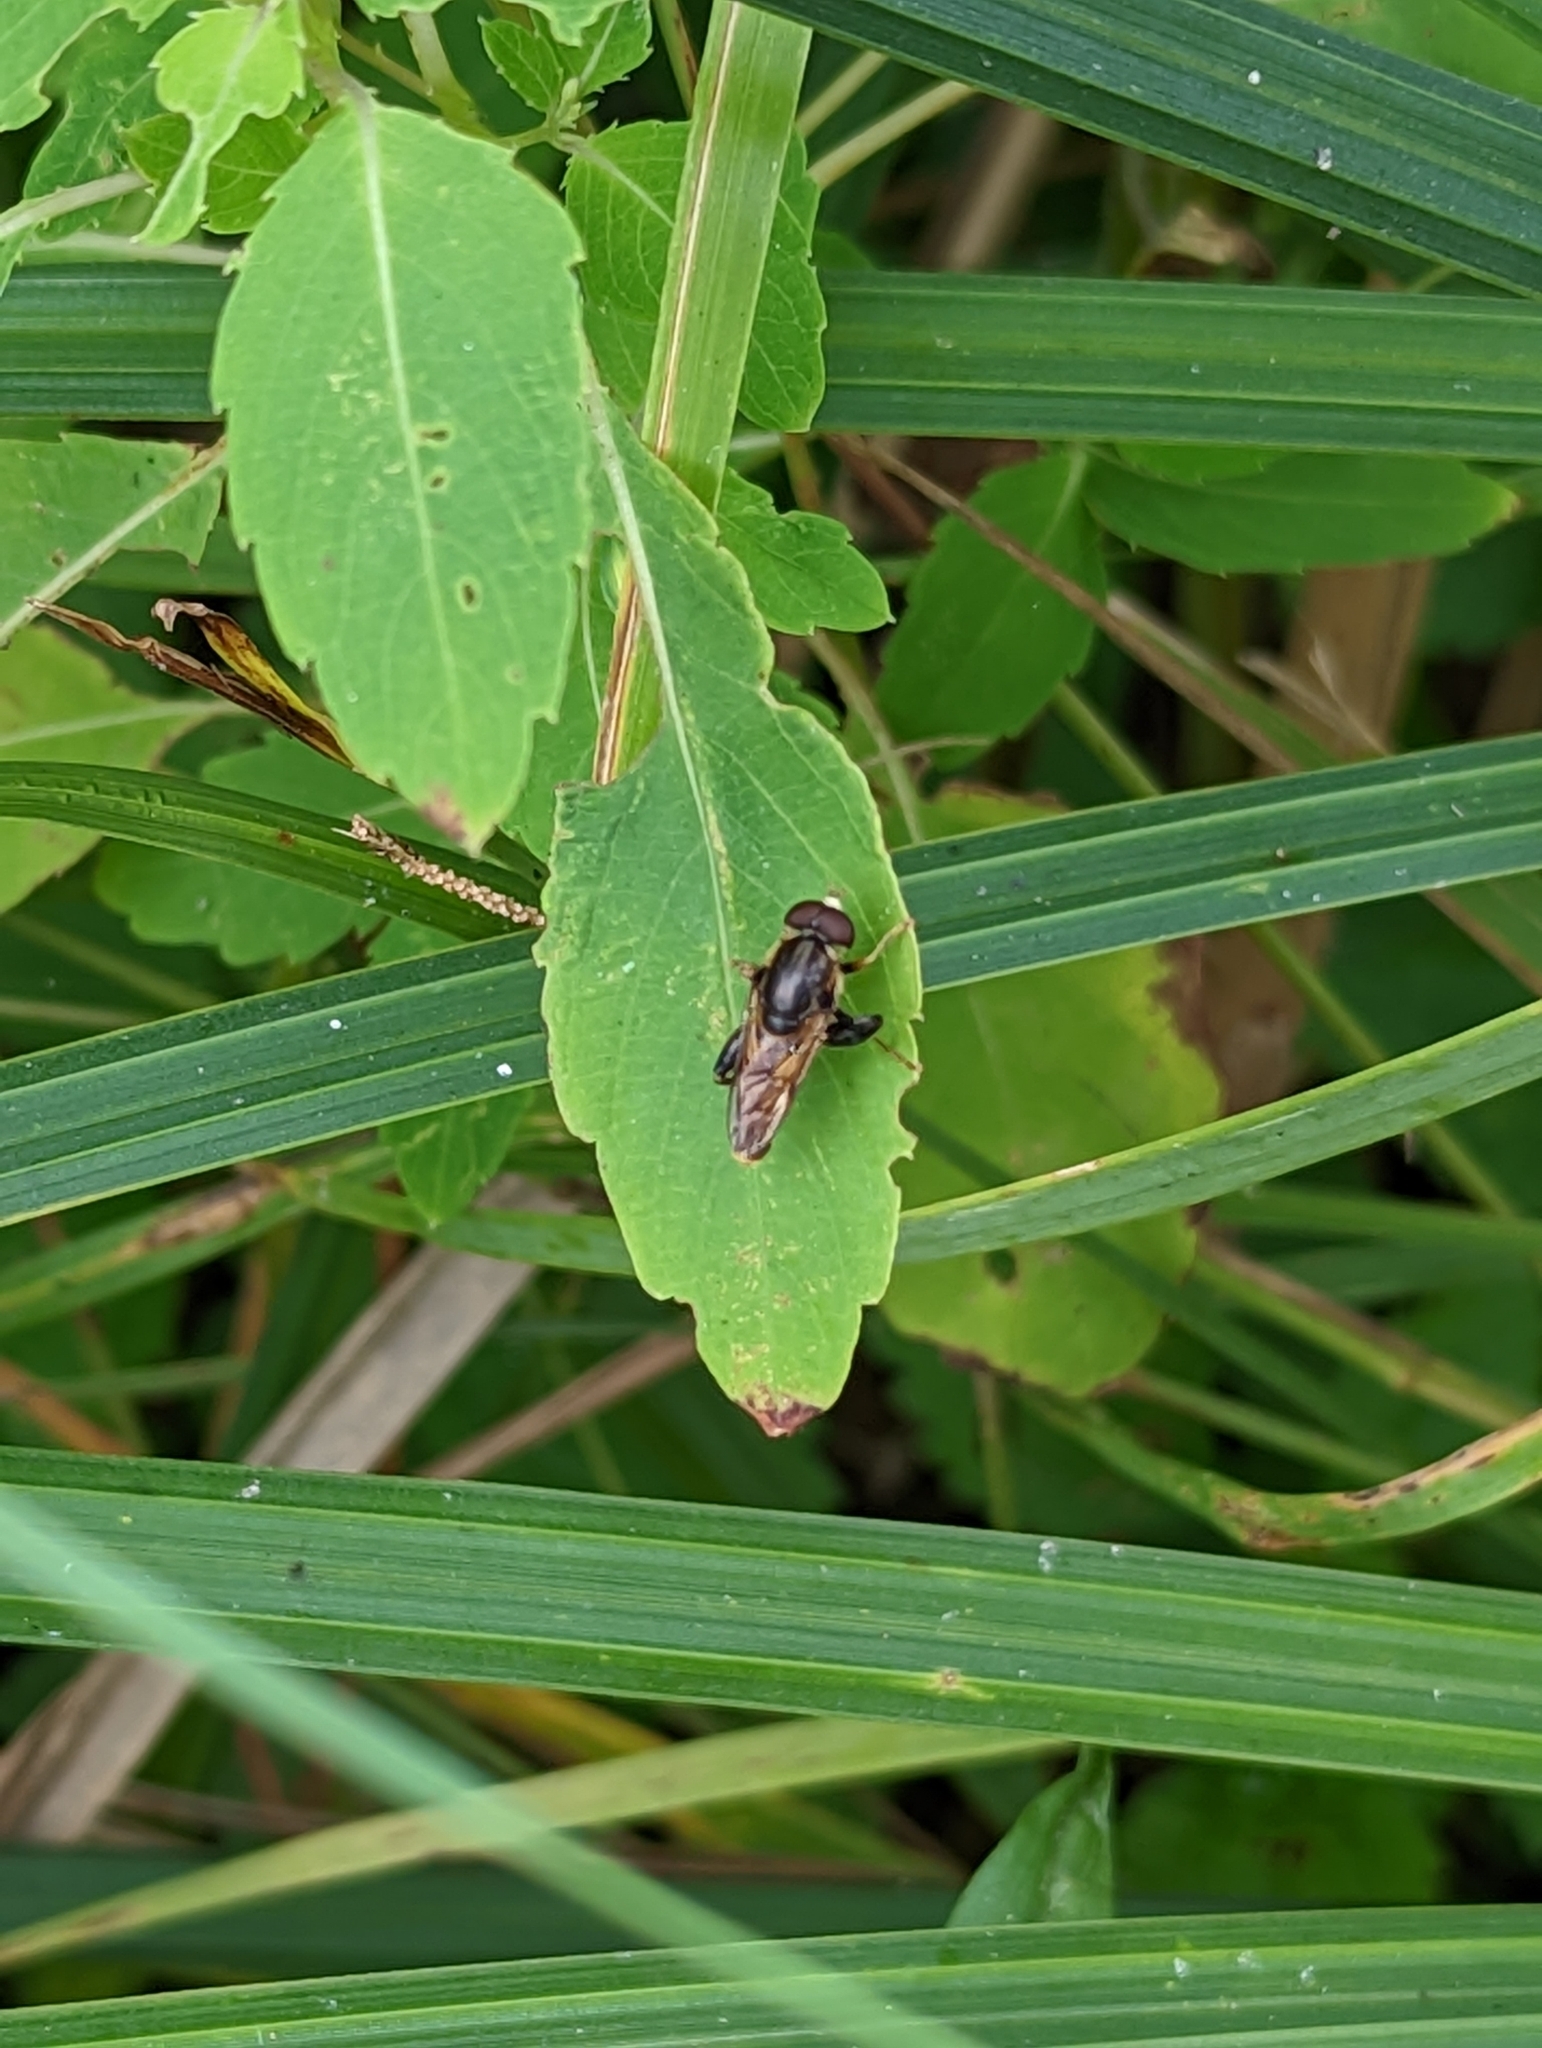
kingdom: Animalia
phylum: Arthropoda
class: Insecta
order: Diptera
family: Syrphidae
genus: Tropidia
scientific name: Tropidia quadrata
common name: Common thick-legged fly
